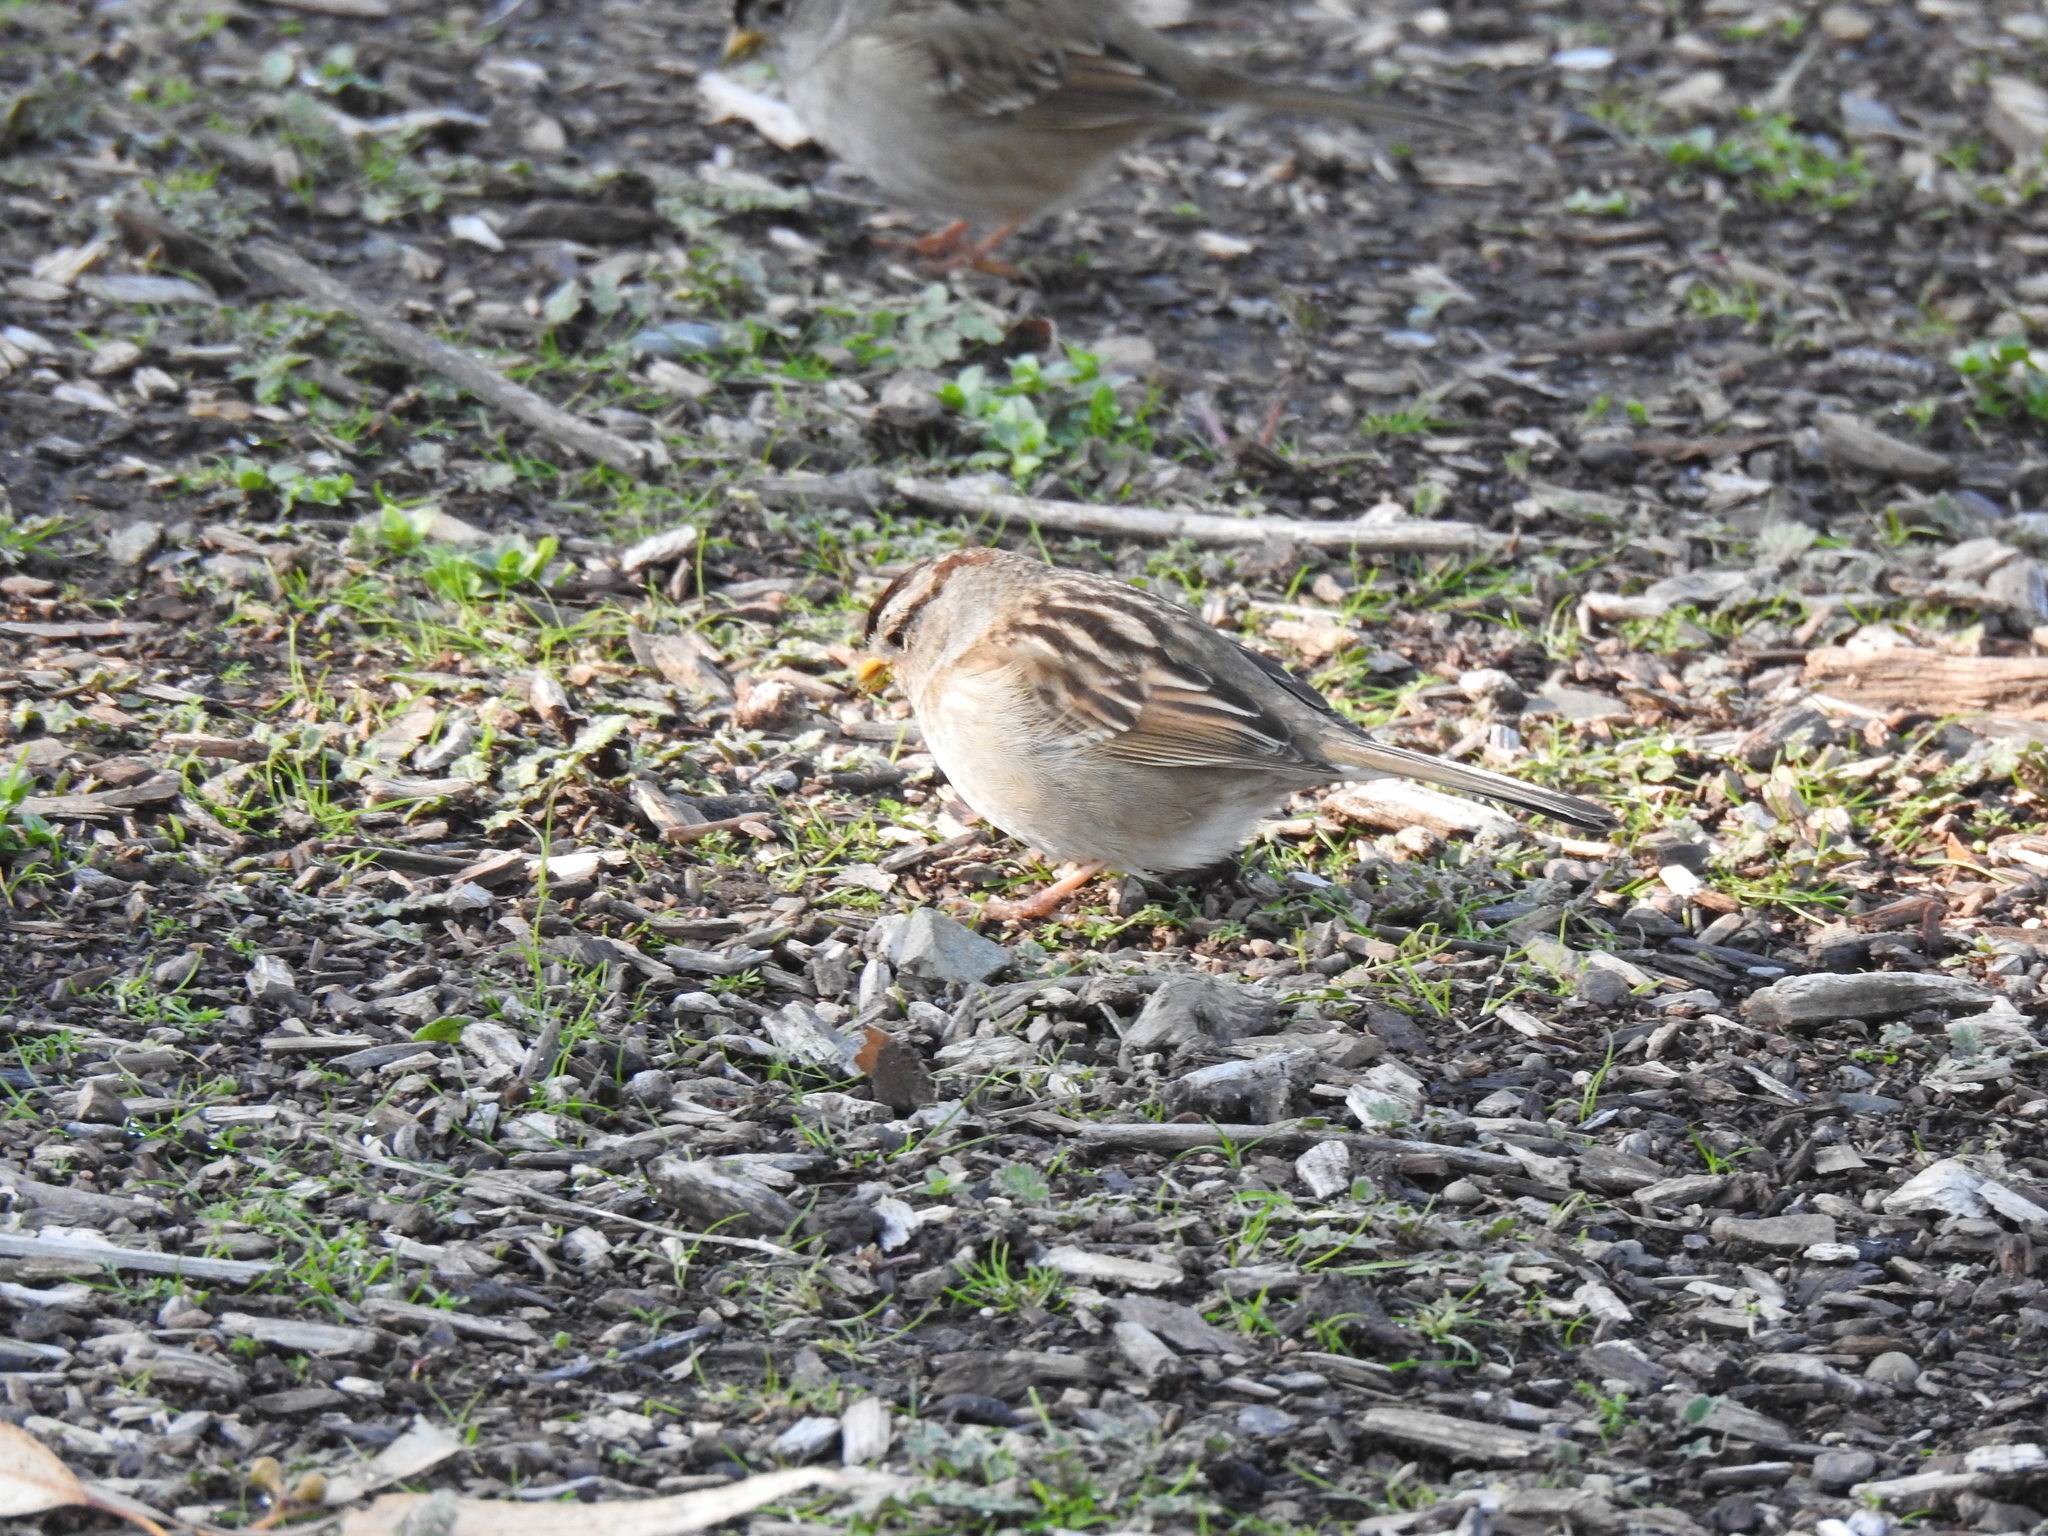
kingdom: Animalia
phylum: Chordata
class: Aves
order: Passeriformes
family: Passerellidae
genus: Zonotrichia
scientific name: Zonotrichia leucophrys
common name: White-crowned sparrow
